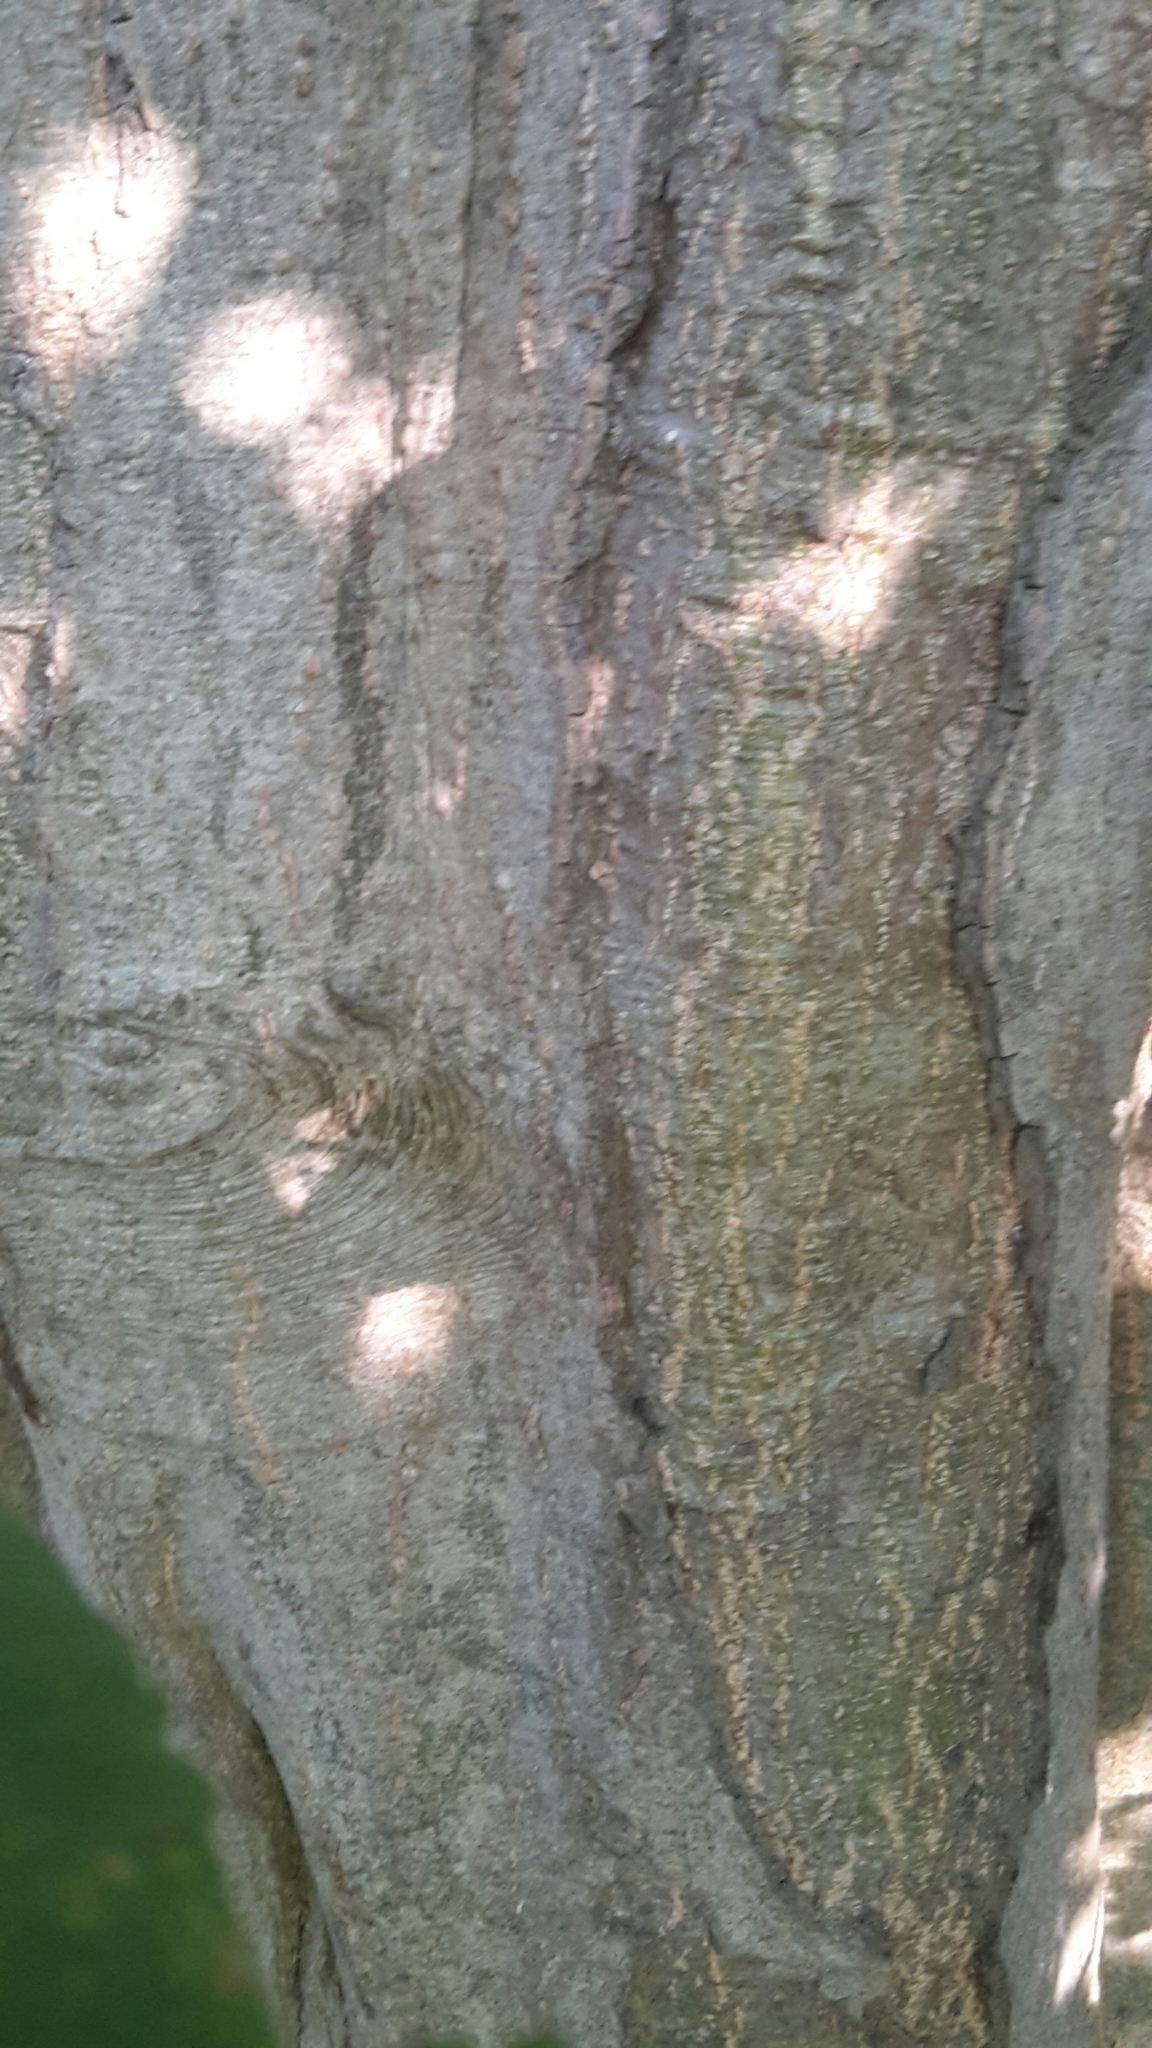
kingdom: Plantae
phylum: Tracheophyta
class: Magnoliopsida
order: Sapindales
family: Sapindaceae
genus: Acer
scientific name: Acer pseudoplatanus
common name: Sycamore
